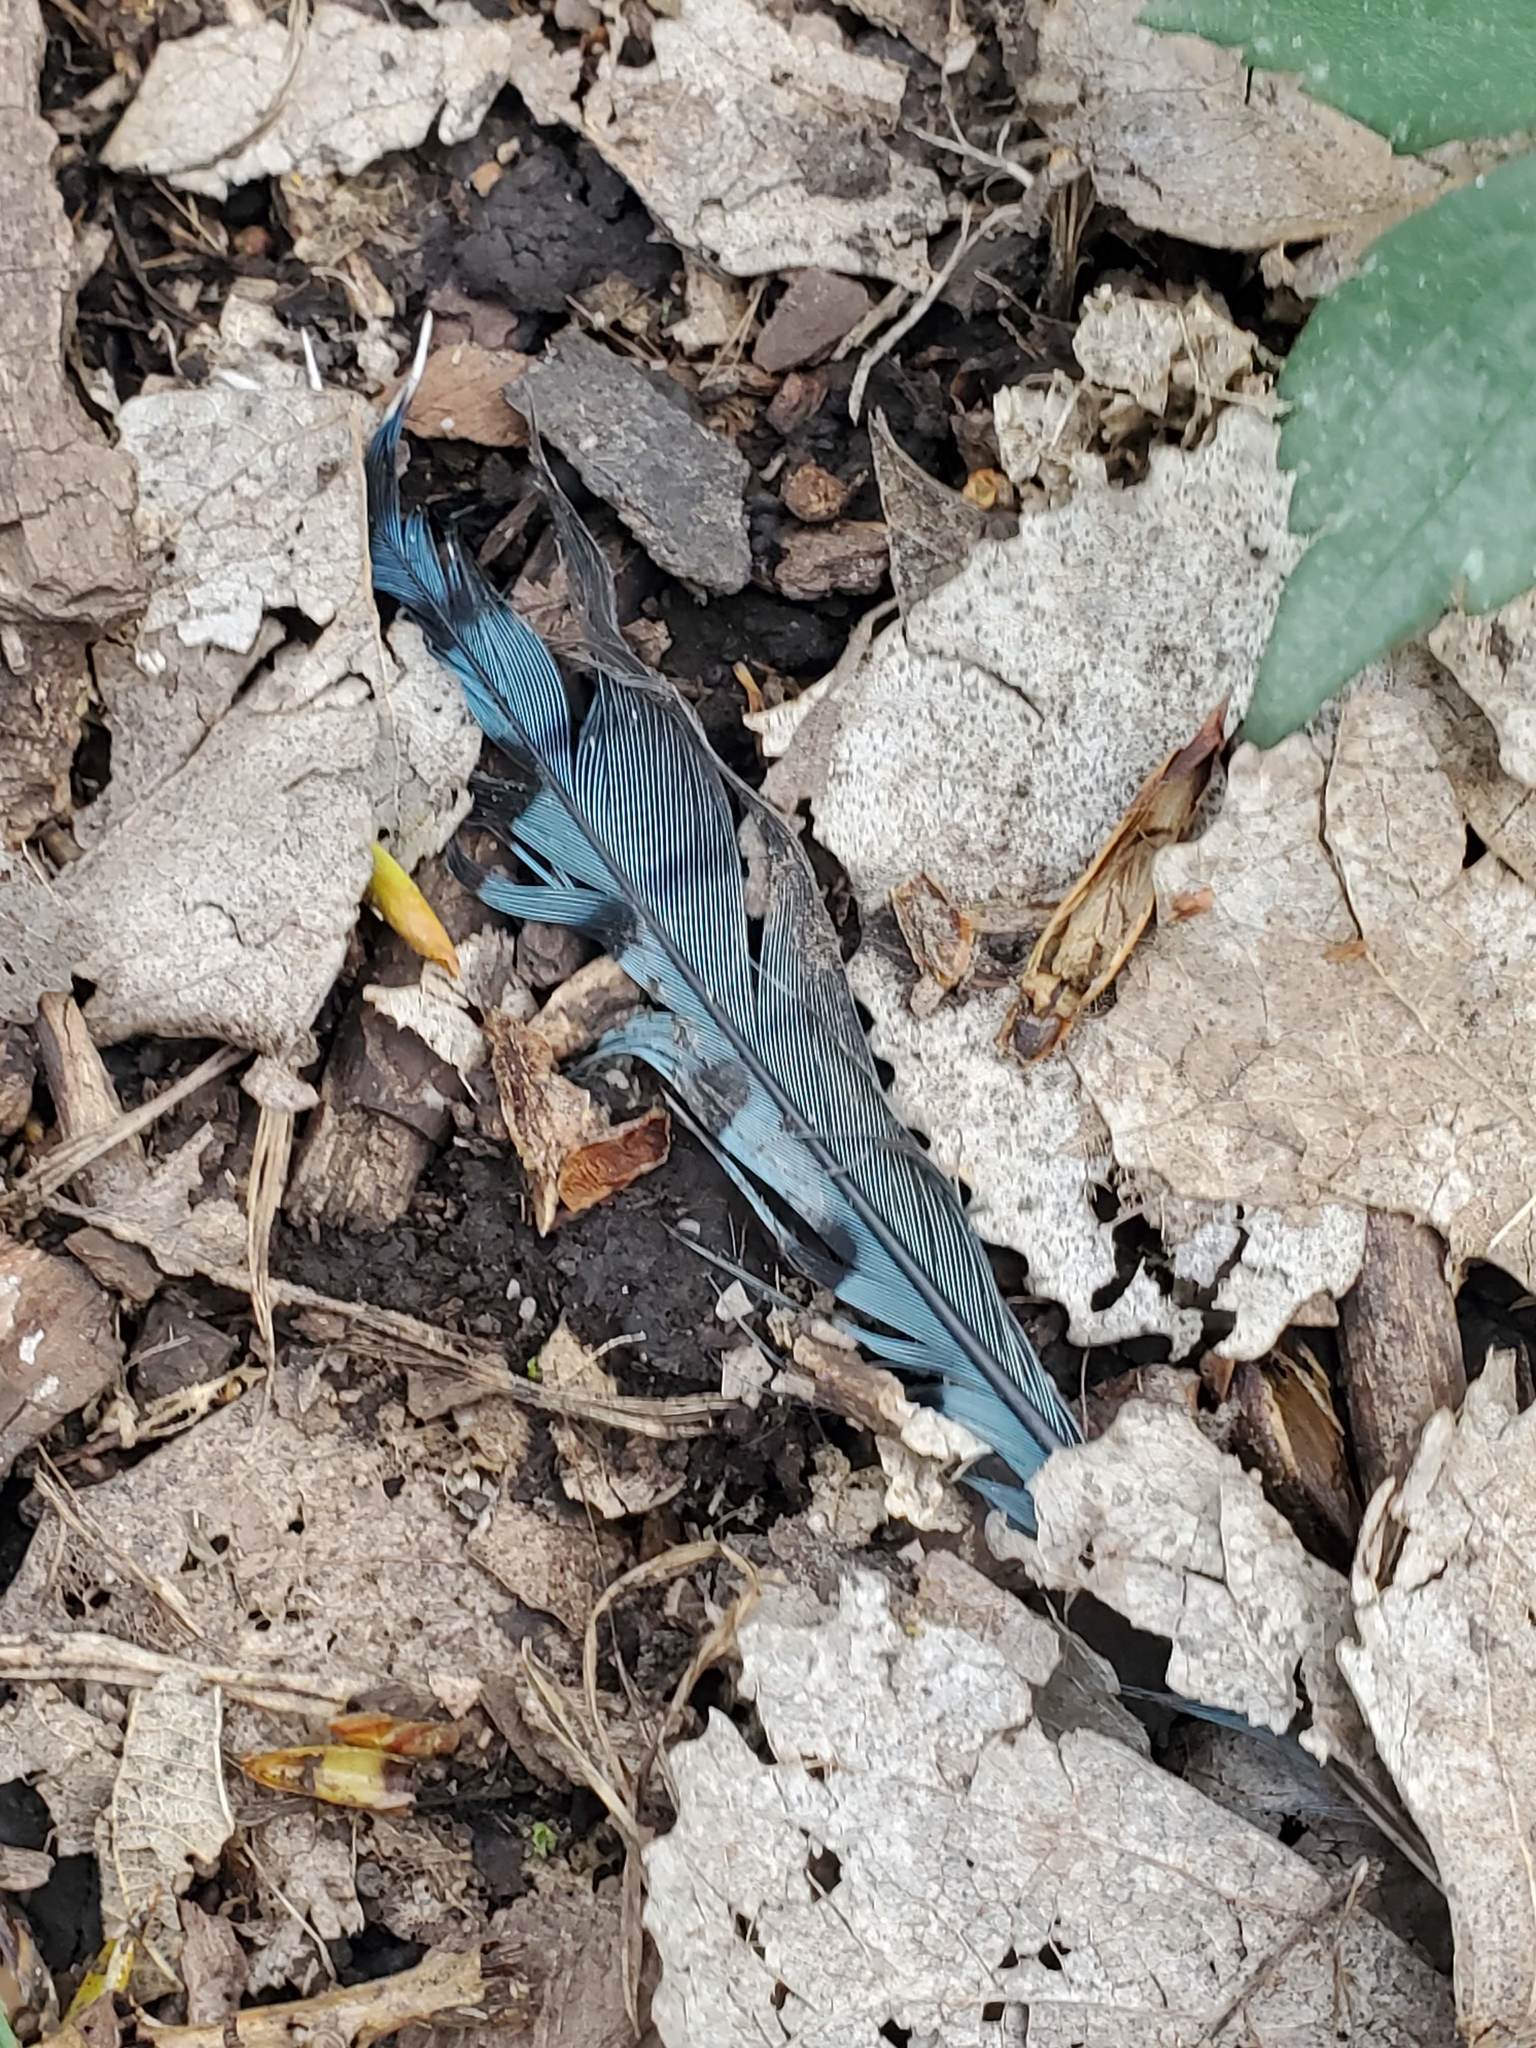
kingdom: Animalia
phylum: Chordata
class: Aves
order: Passeriformes
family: Corvidae
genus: Cyanocitta
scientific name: Cyanocitta cristata
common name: Blue jay
